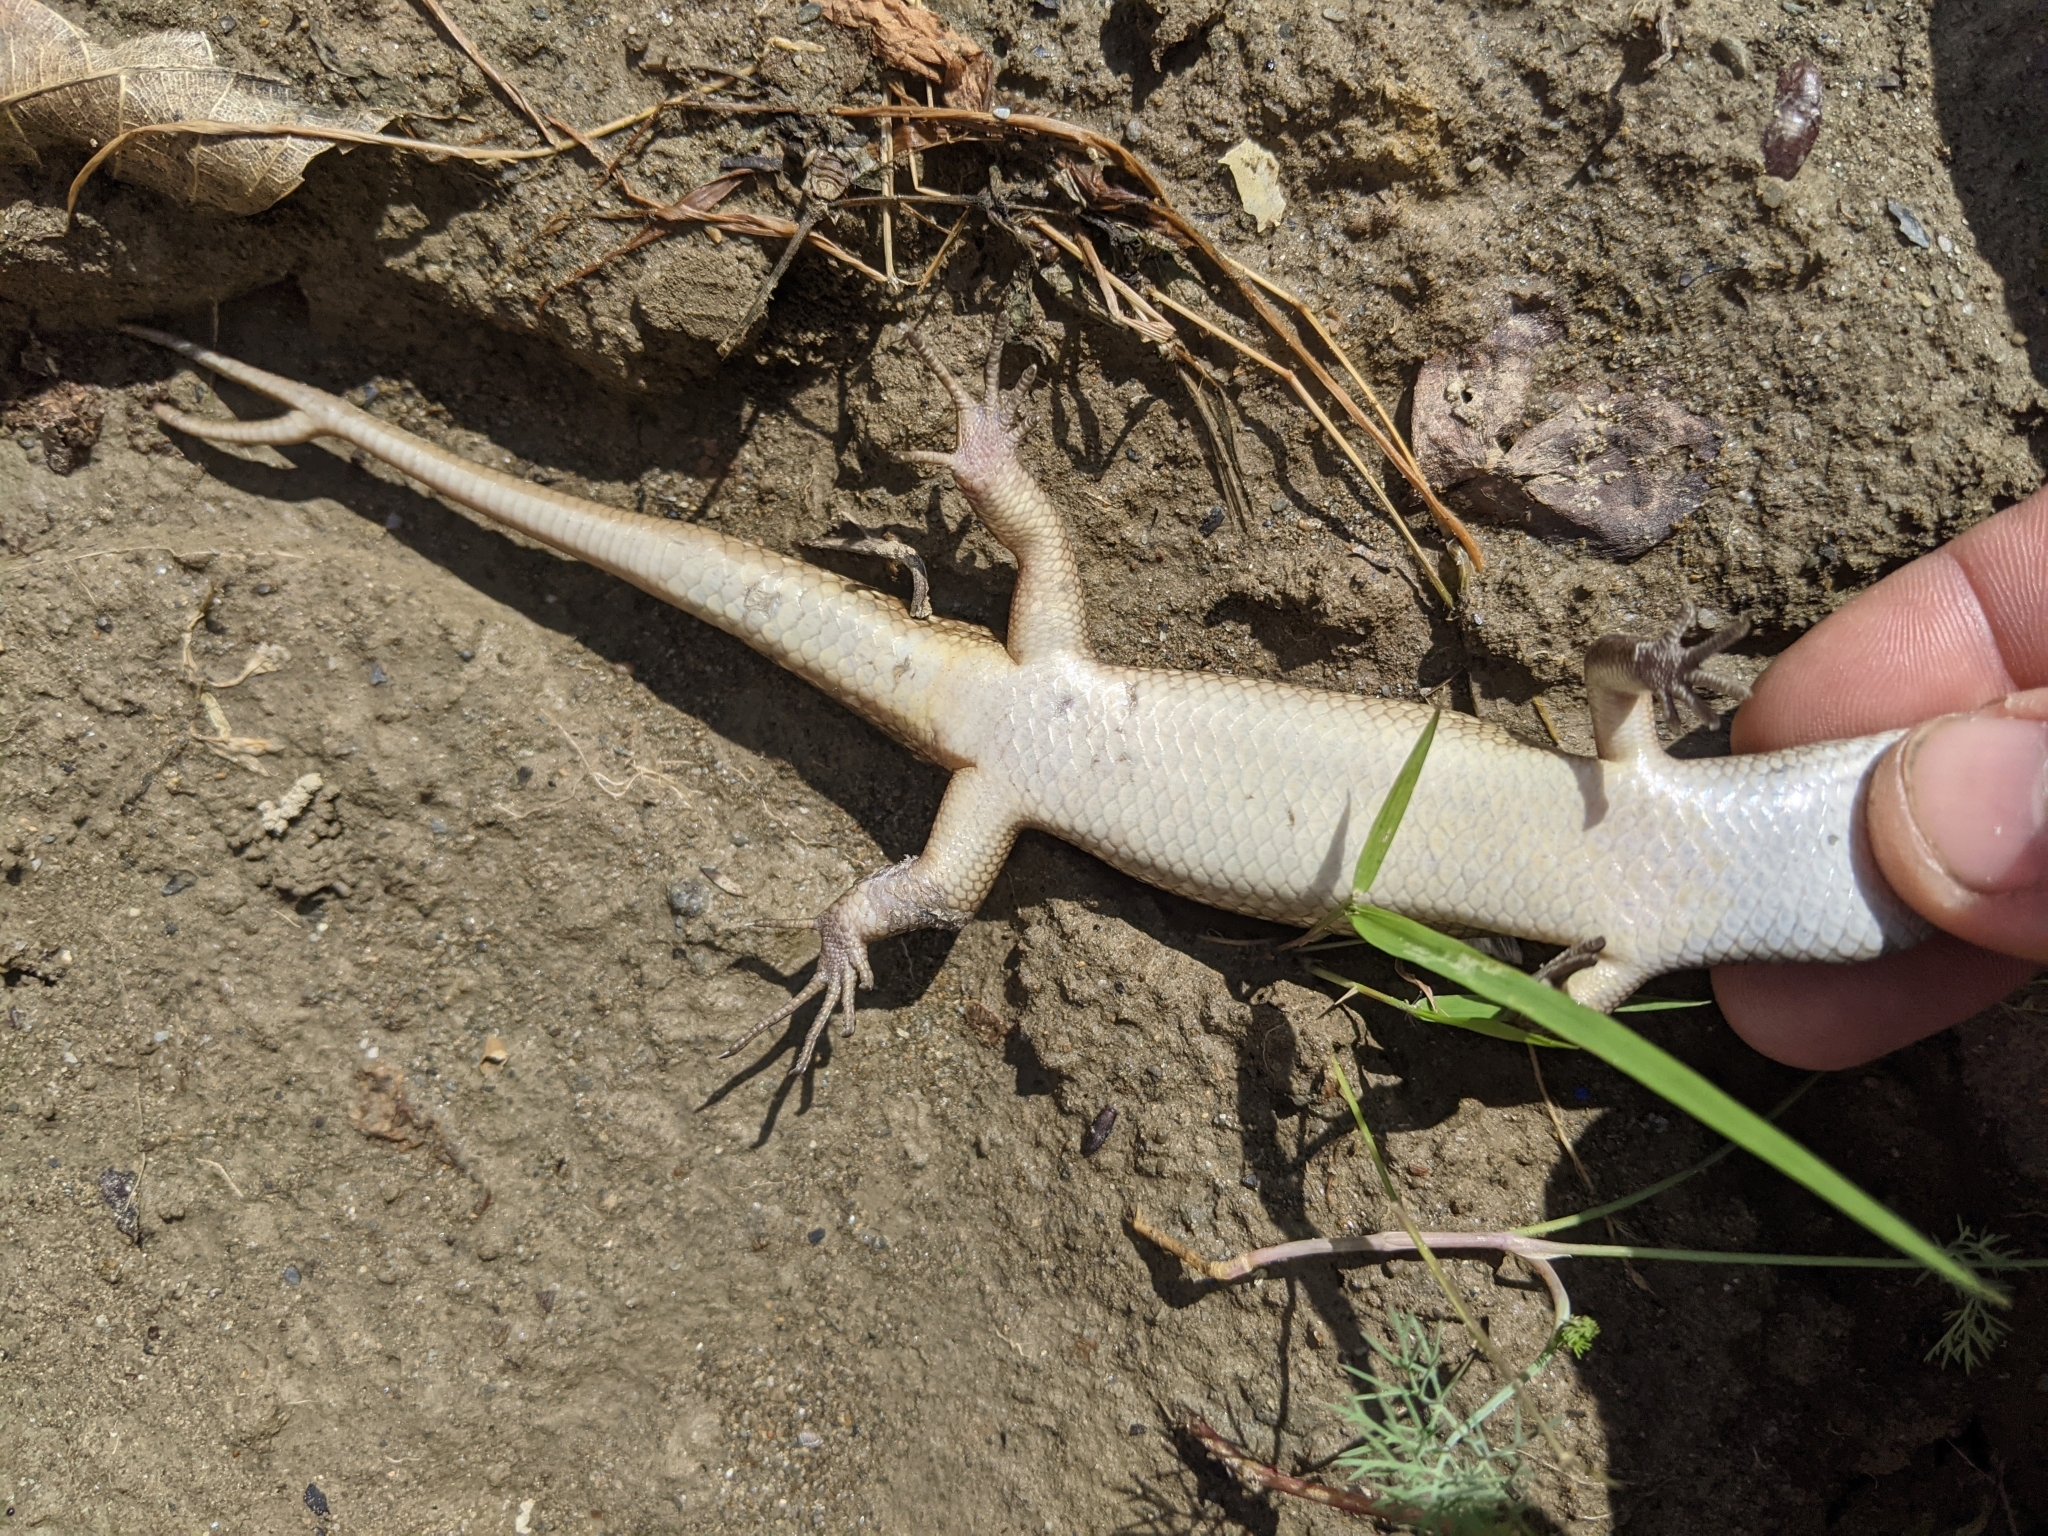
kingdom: Animalia
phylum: Chordata
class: Squamata
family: Scincidae
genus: Eutropis
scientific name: Eutropis multifasciata
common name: Common mabuya
